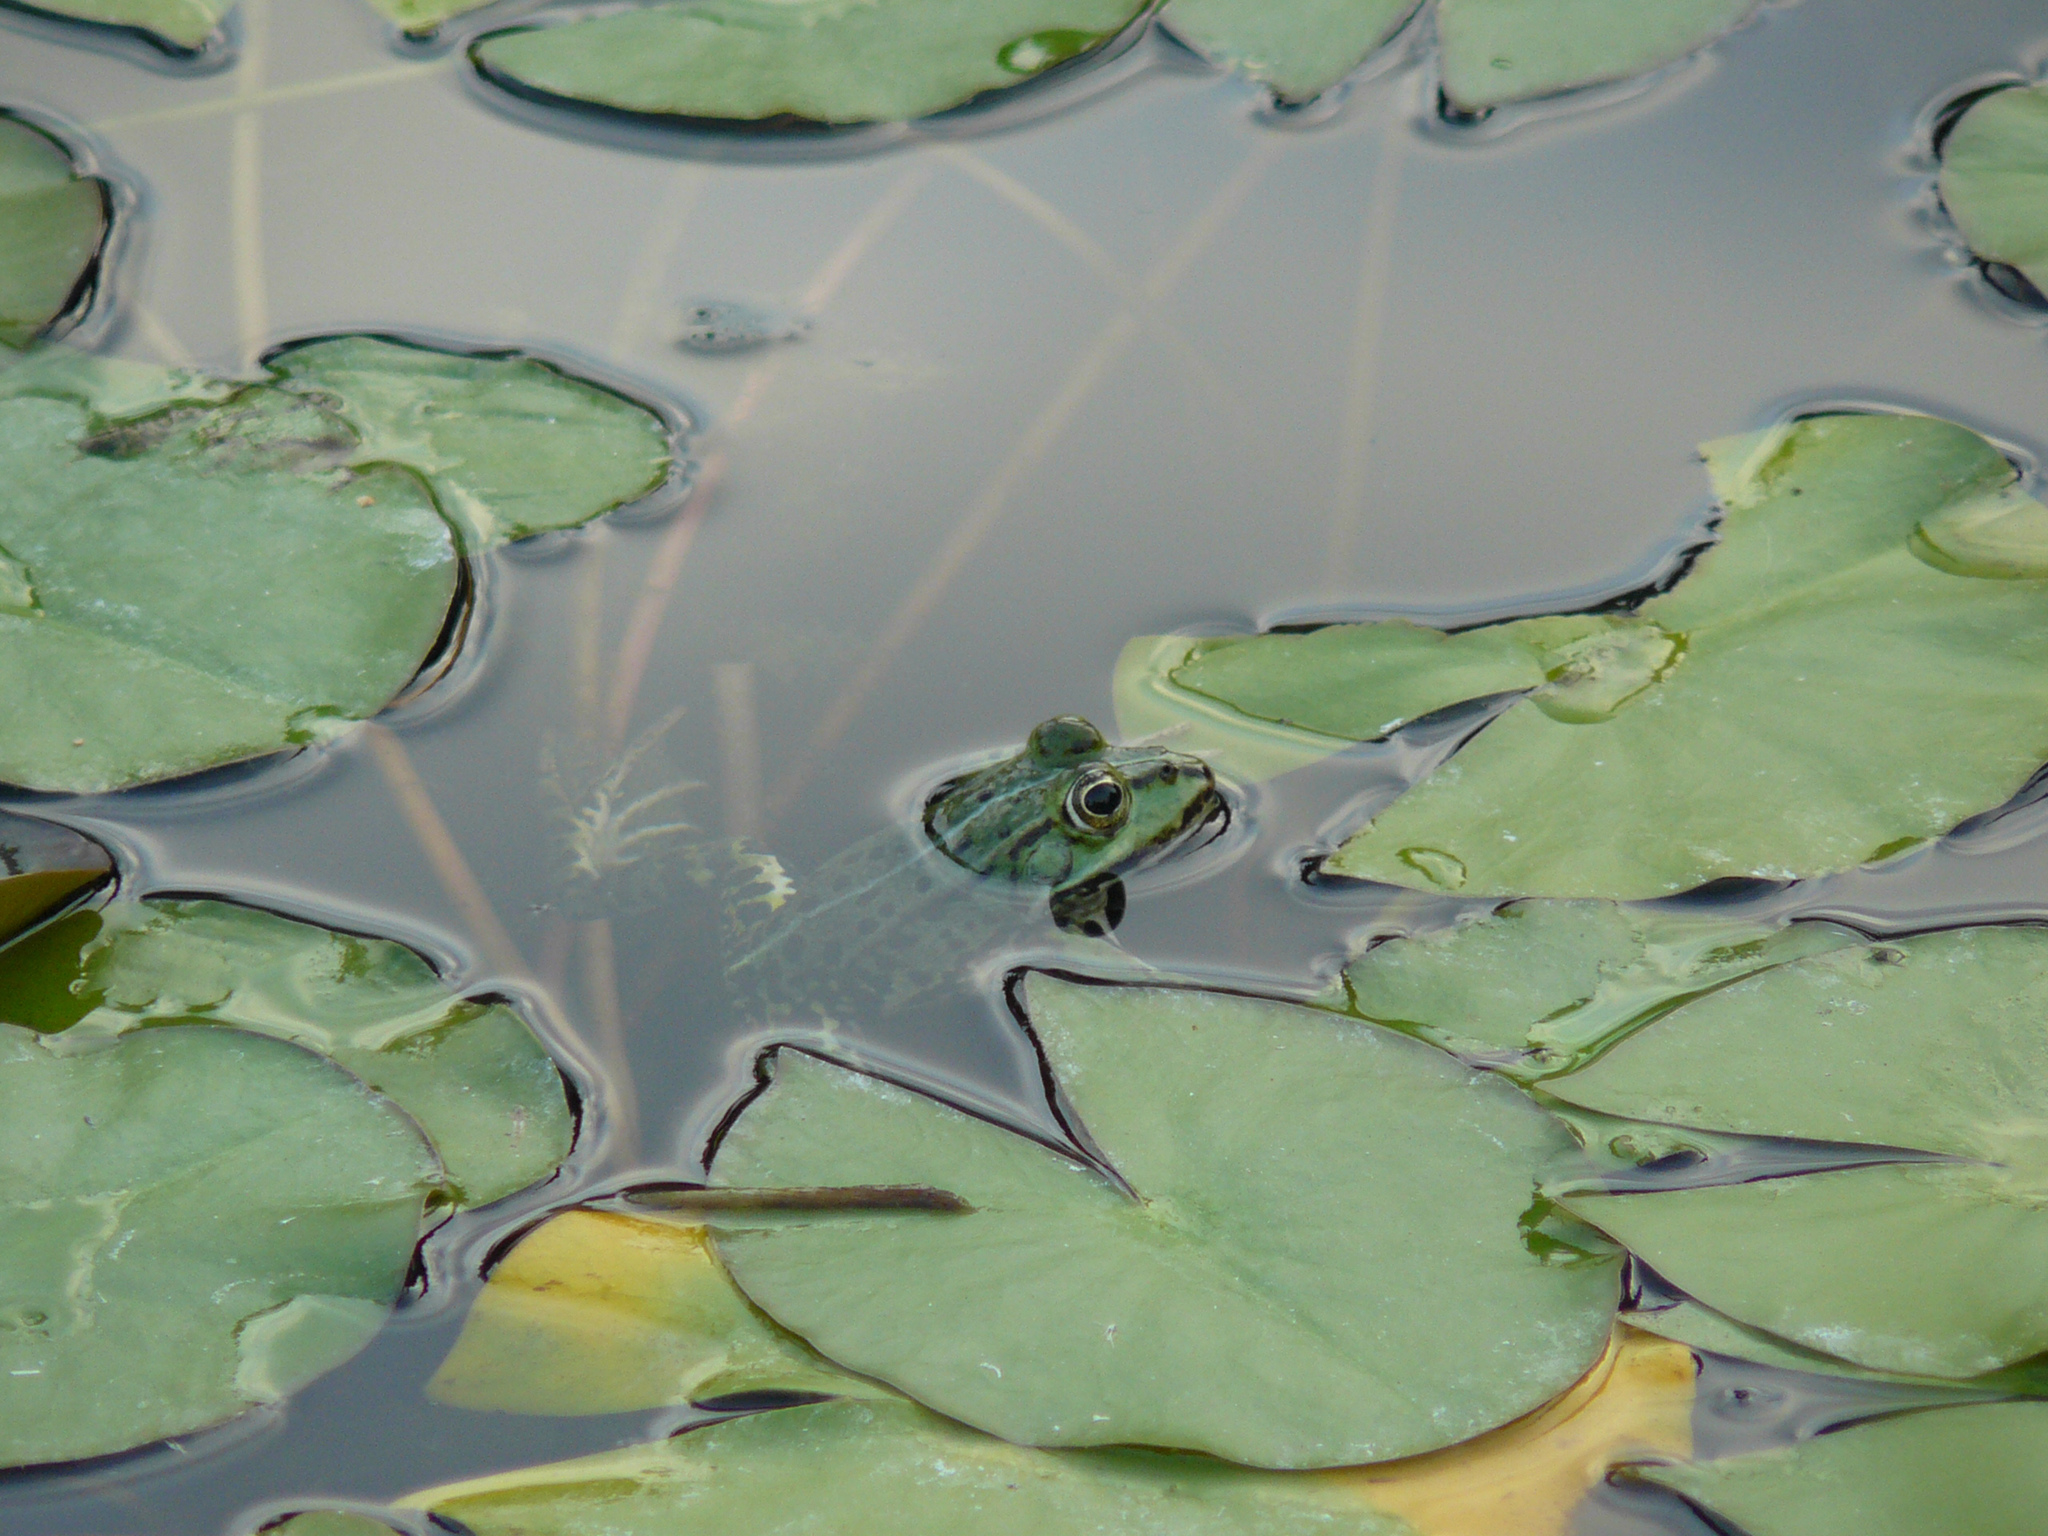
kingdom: Animalia
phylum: Chordata
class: Amphibia
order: Anura
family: Ranidae
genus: Pelophylax
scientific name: Pelophylax
